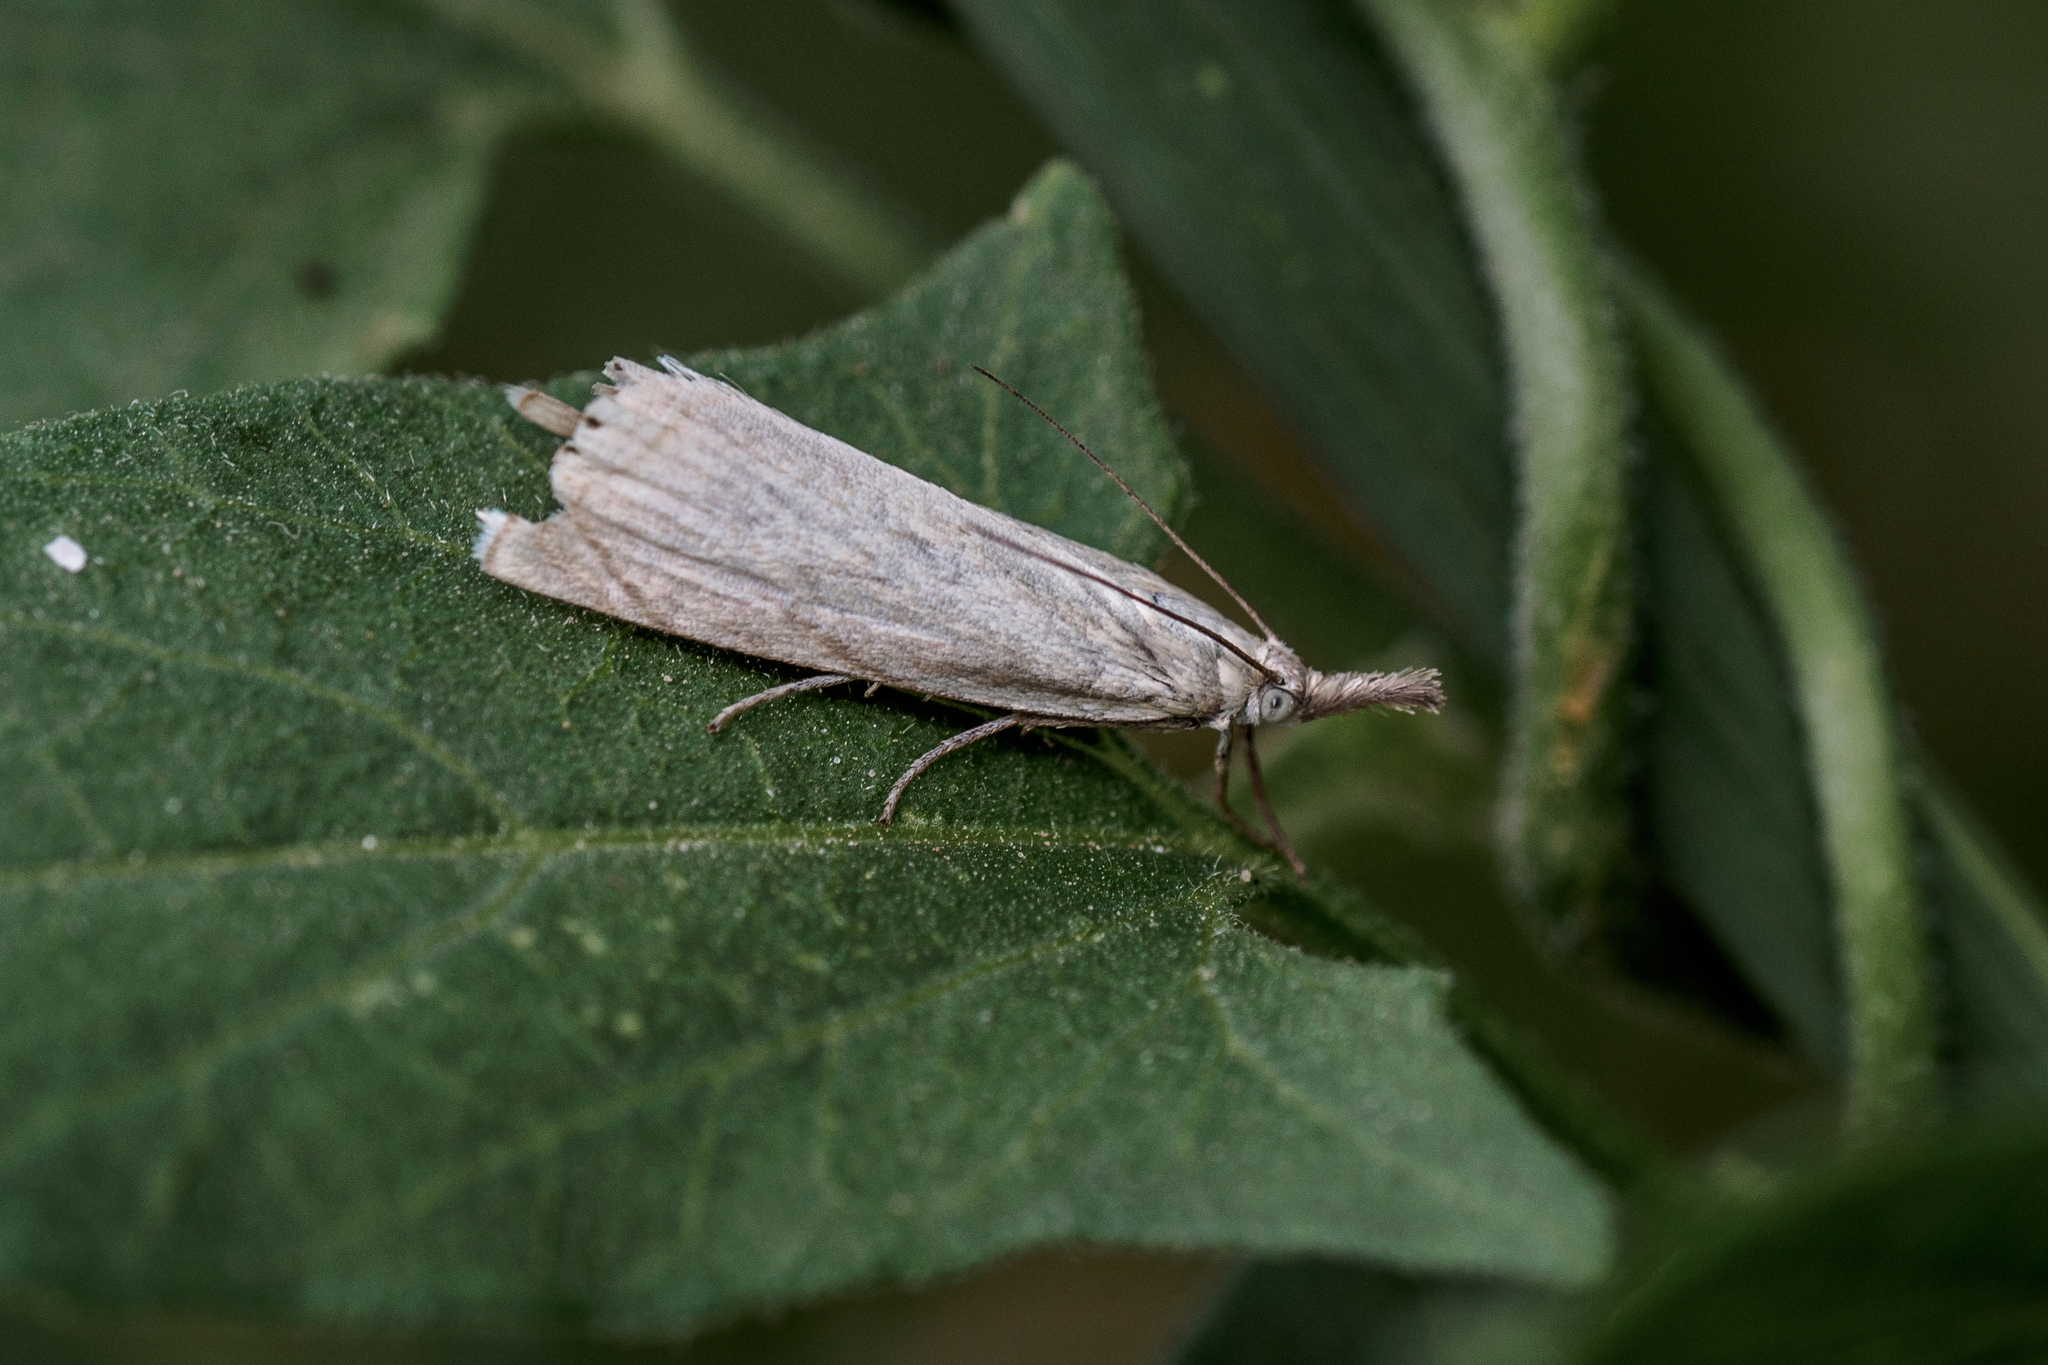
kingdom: Animalia
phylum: Arthropoda
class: Insecta
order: Lepidoptera
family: Crambidae
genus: Chrysoteuchia
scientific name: Chrysoteuchia culmella
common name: Garden grass-veneer
